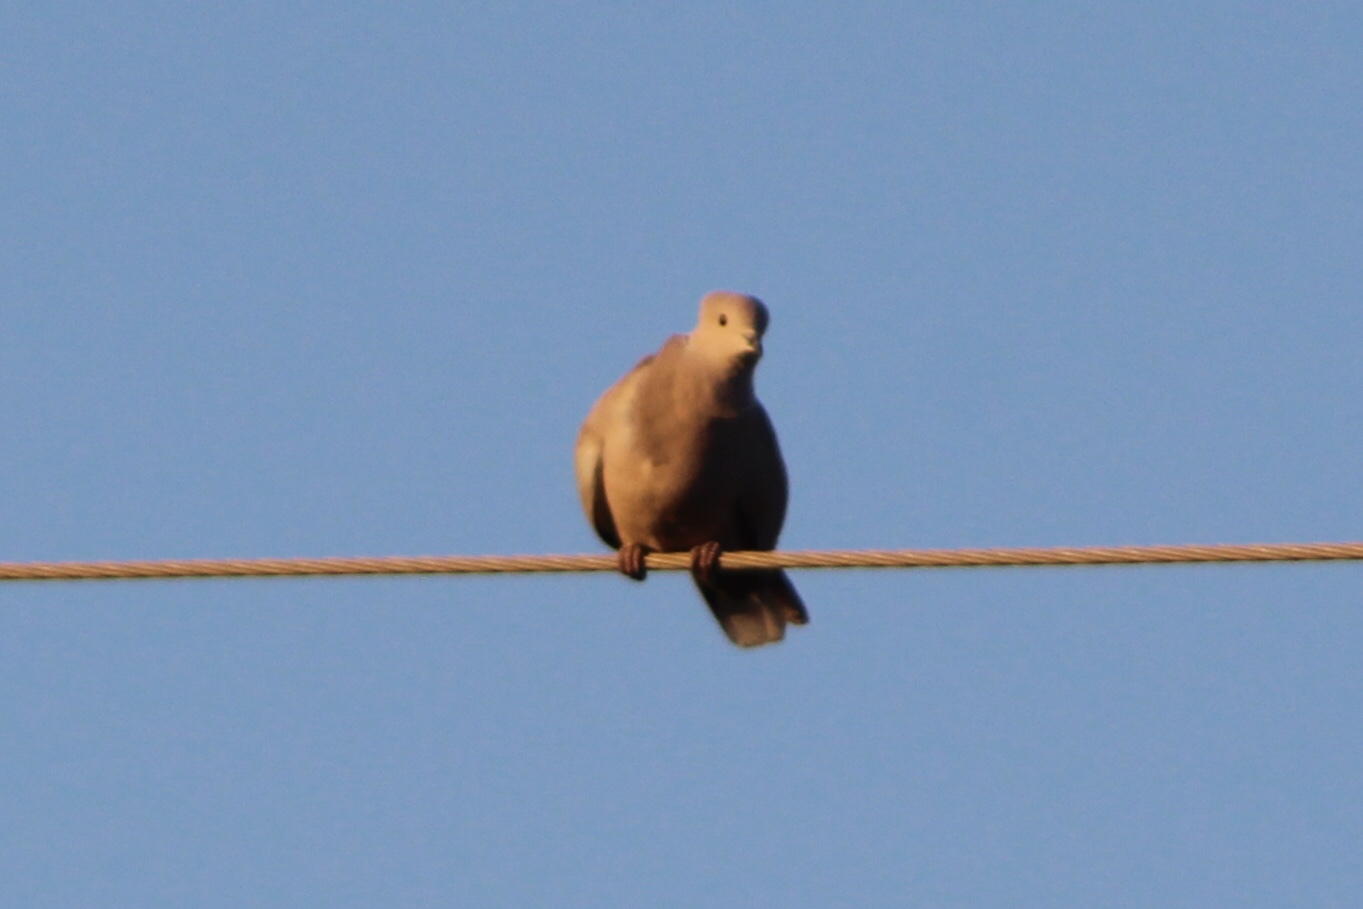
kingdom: Animalia
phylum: Chordata
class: Aves
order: Columbiformes
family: Columbidae
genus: Streptopelia
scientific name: Streptopelia decaocto
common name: Eurasian collared dove
